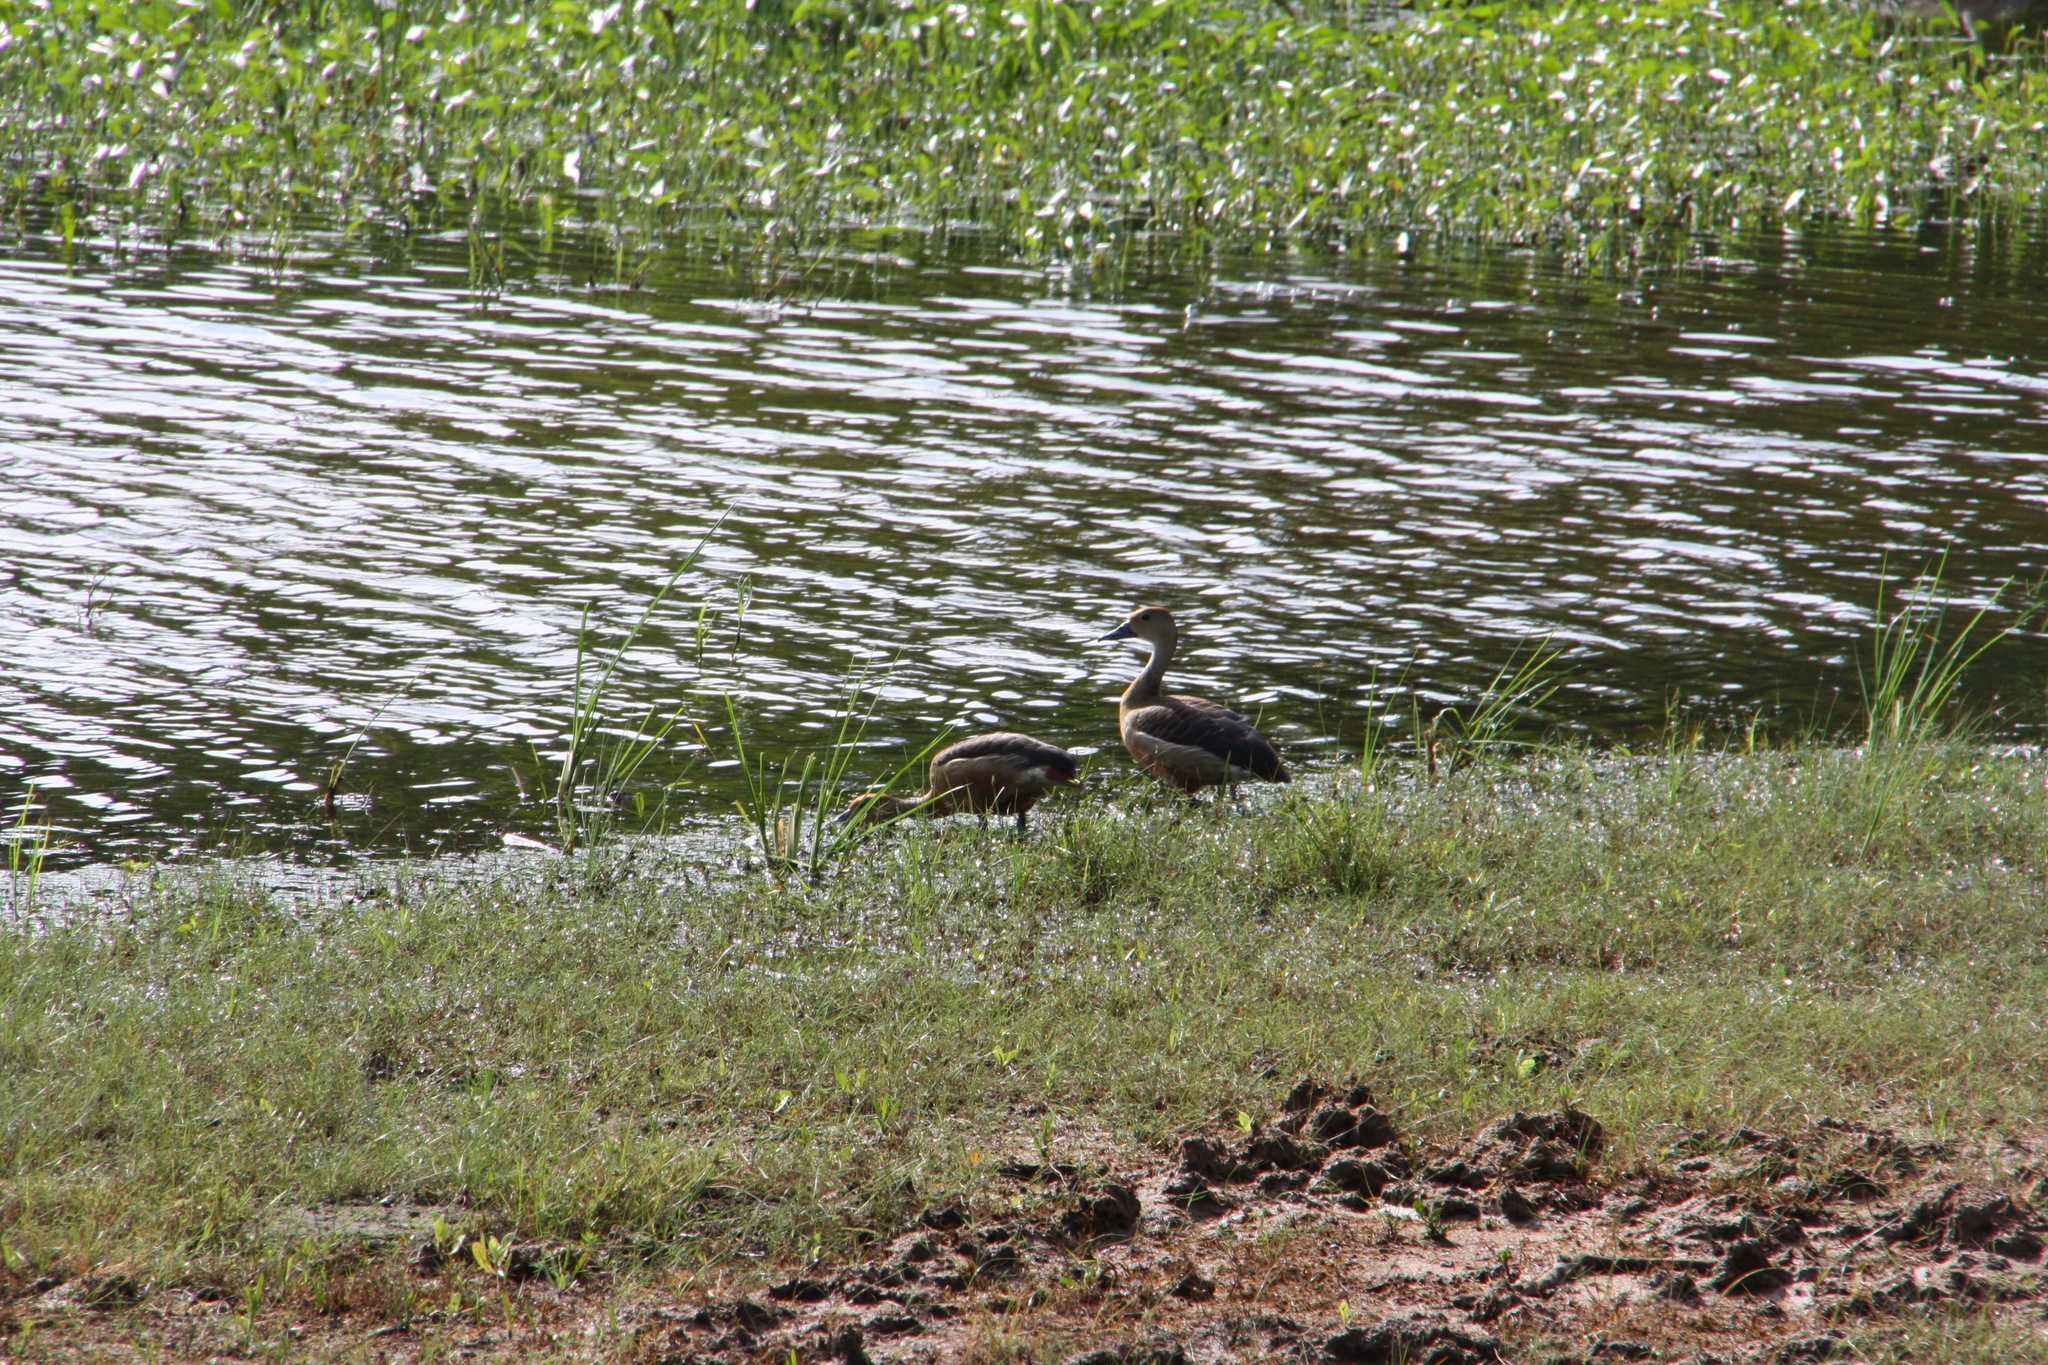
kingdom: Animalia
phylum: Chordata
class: Aves
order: Anseriformes
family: Anatidae
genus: Dendrocygna
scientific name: Dendrocygna javanica
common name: Lesser whistling-duck
